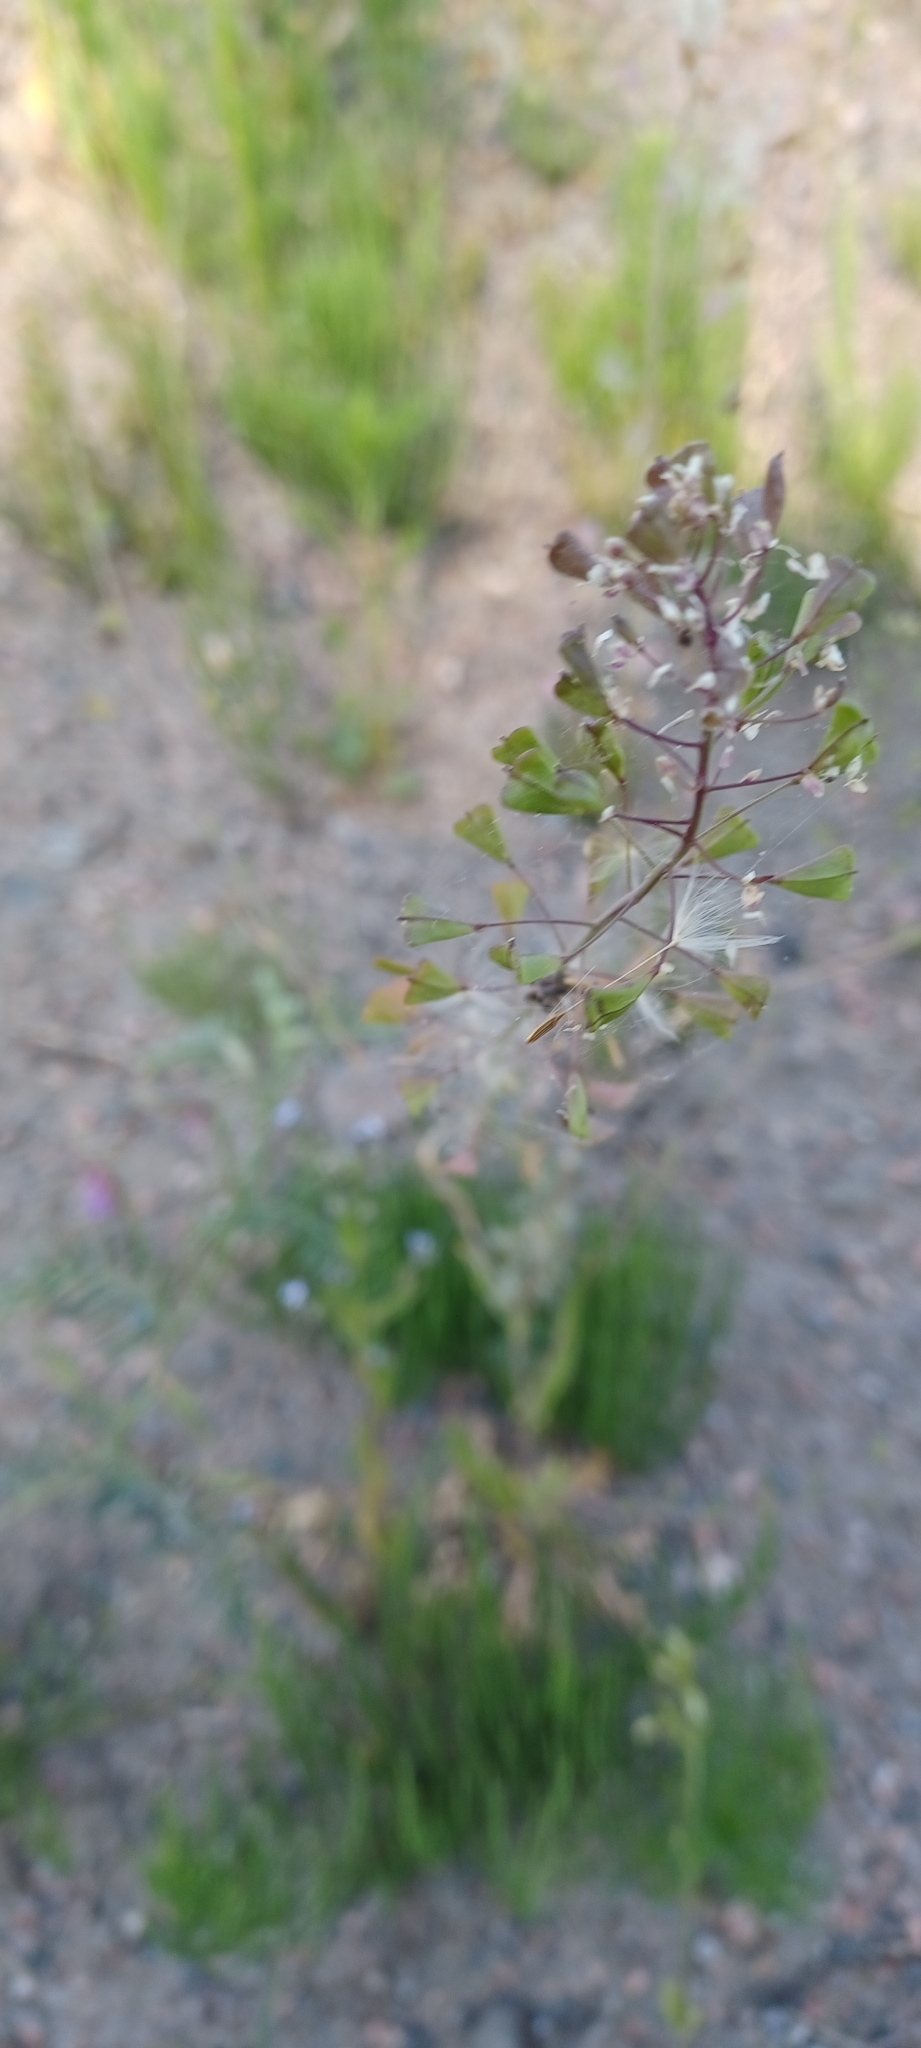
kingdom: Plantae
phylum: Tracheophyta
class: Magnoliopsida
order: Brassicales
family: Brassicaceae
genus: Capsella
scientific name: Capsella bursa-pastoris
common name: Shepherd's purse
